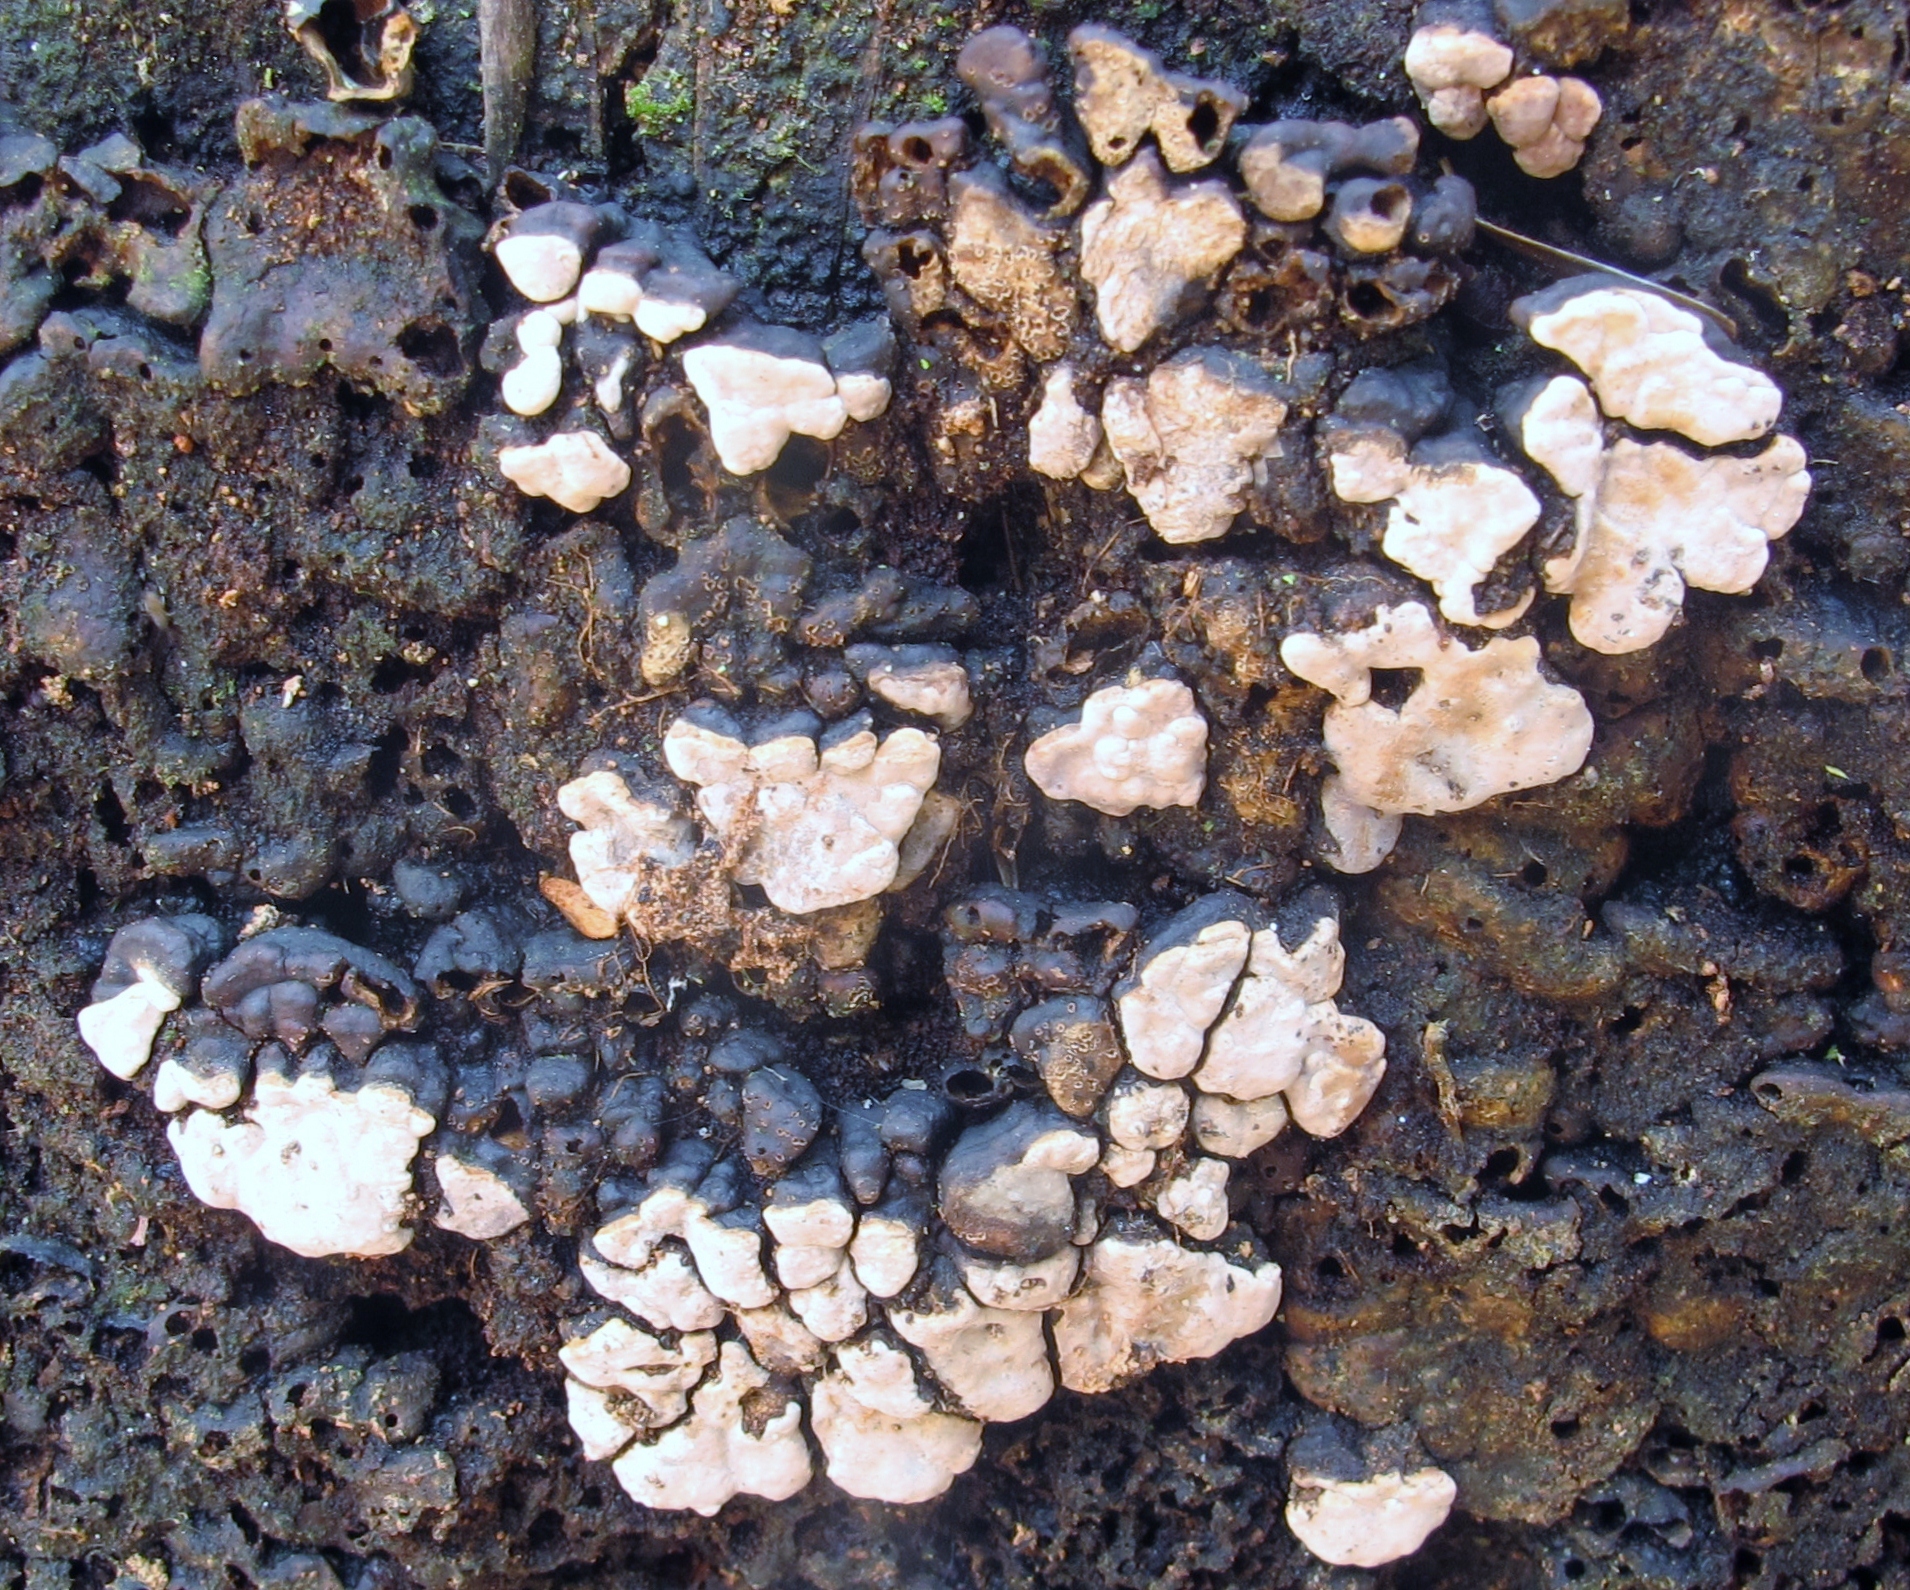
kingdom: Fungi
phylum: Basidiomycota
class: Agaricomycetes
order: Russulales
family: Stereaceae
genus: Xylobolus
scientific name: Xylobolus frustulatus
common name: Ceramic parchment
